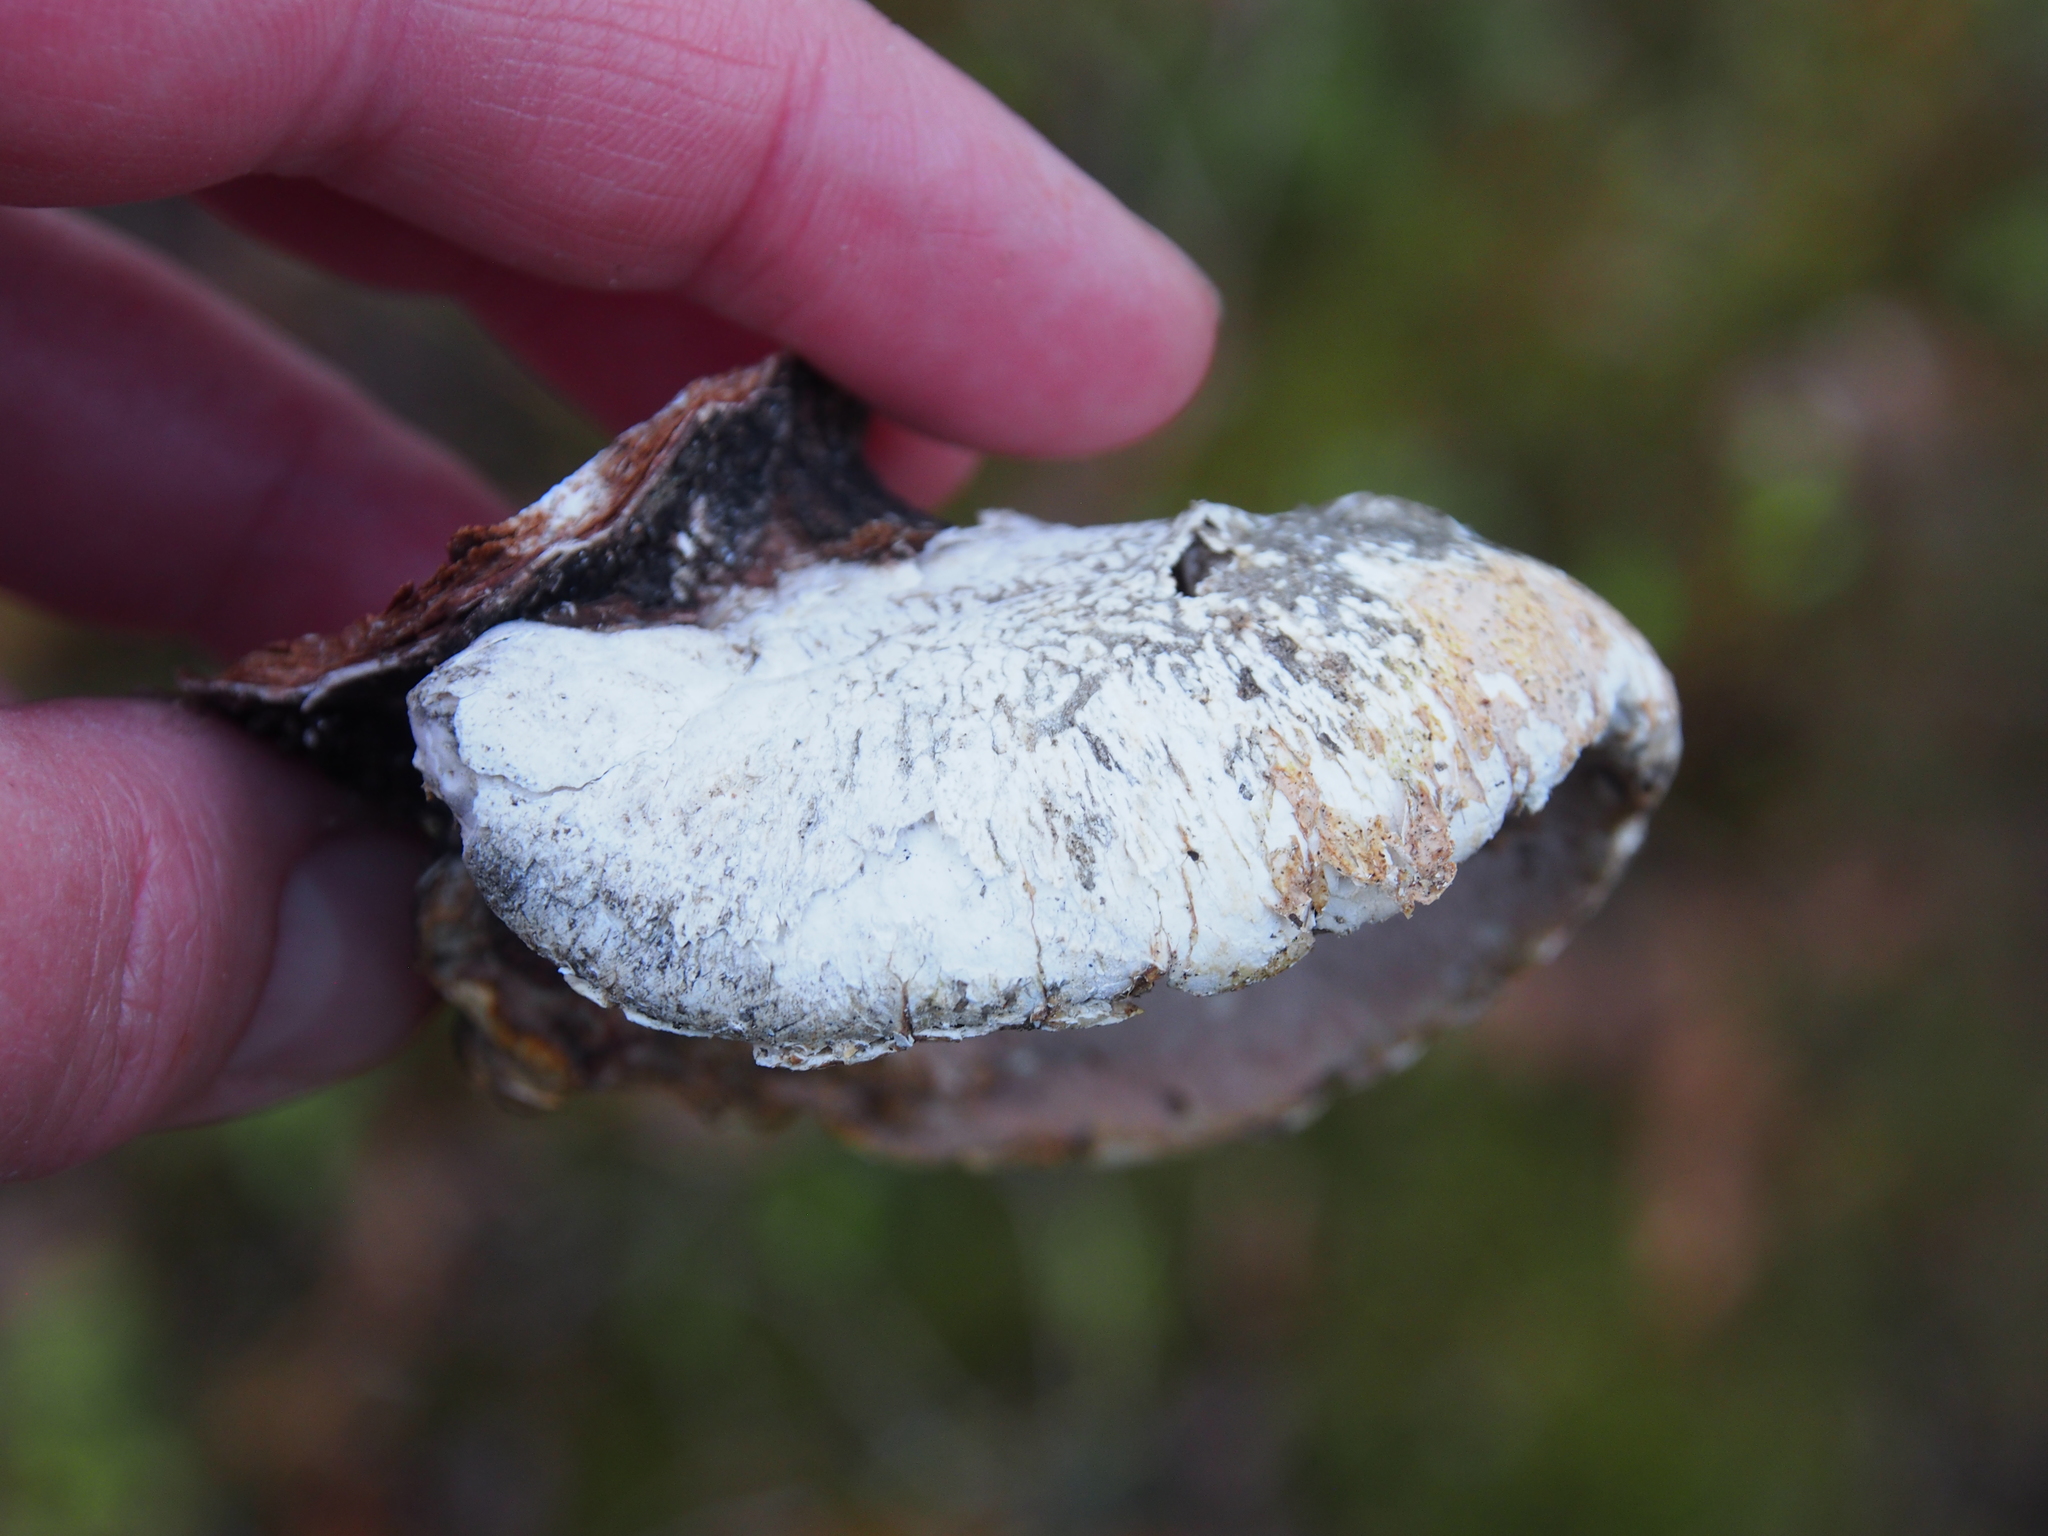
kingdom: Fungi
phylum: Basidiomycota
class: Agaricomycetes
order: Polyporales
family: Fomitopsidaceae
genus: Fomitopsis
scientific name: Fomitopsis betulina
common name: Birch polypore
